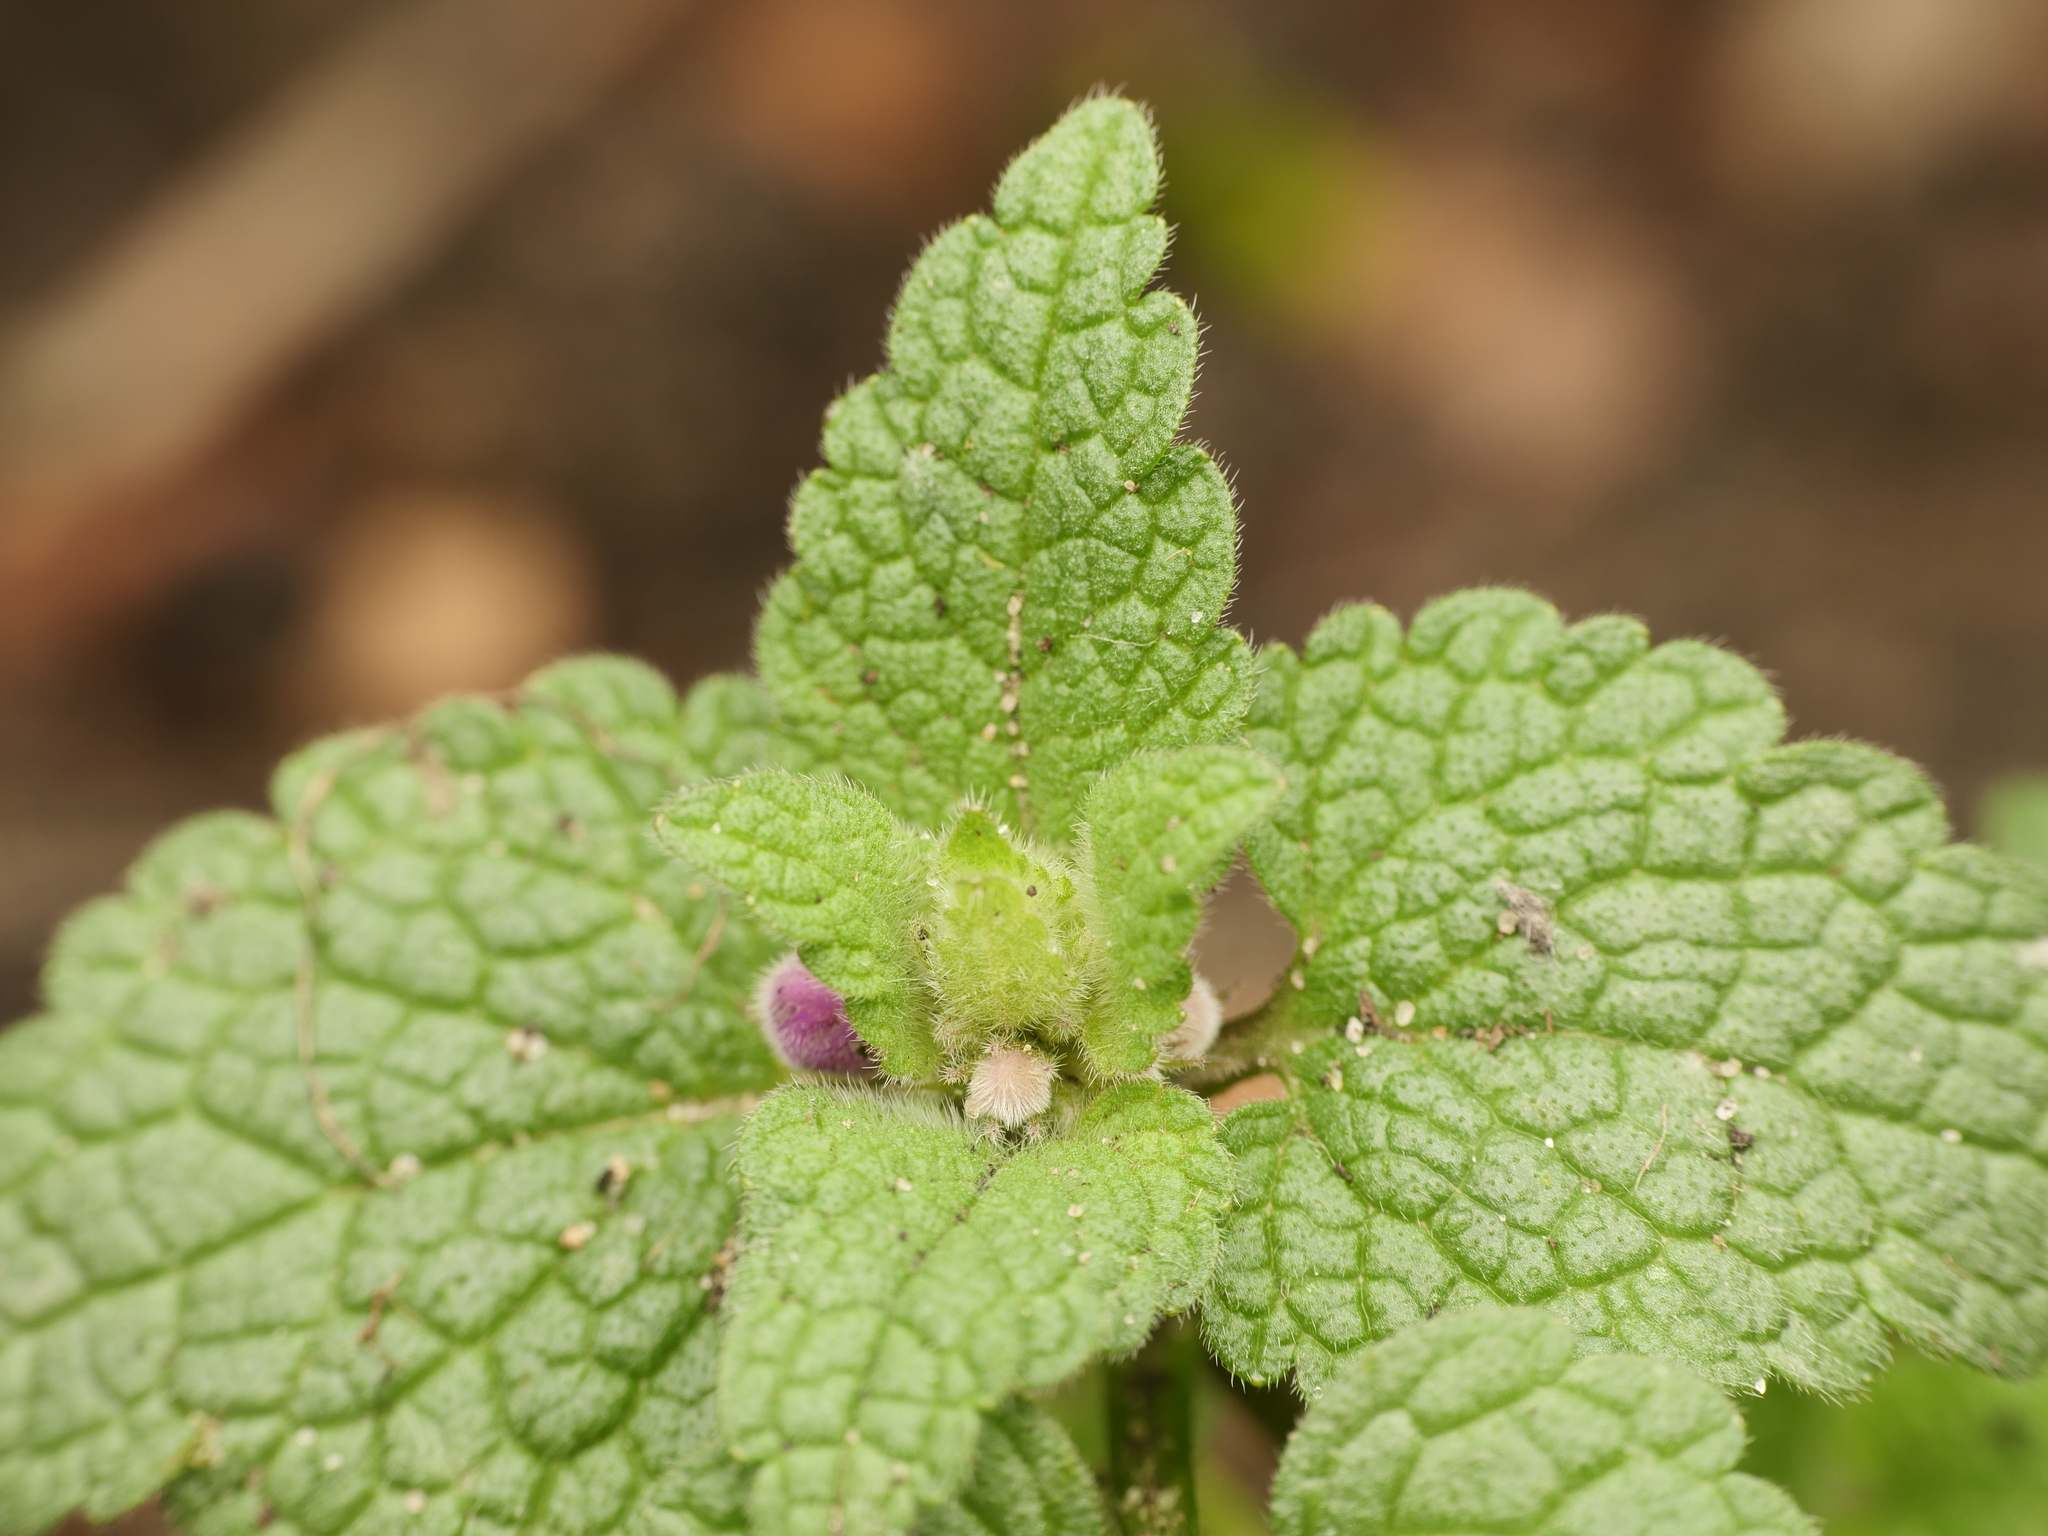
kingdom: Plantae
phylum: Tracheophyta
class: Magnoliopsida
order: Lamiales
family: Lamiaceae
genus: Lamium
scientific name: Lamium purpureum
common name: Red dead-nettle
